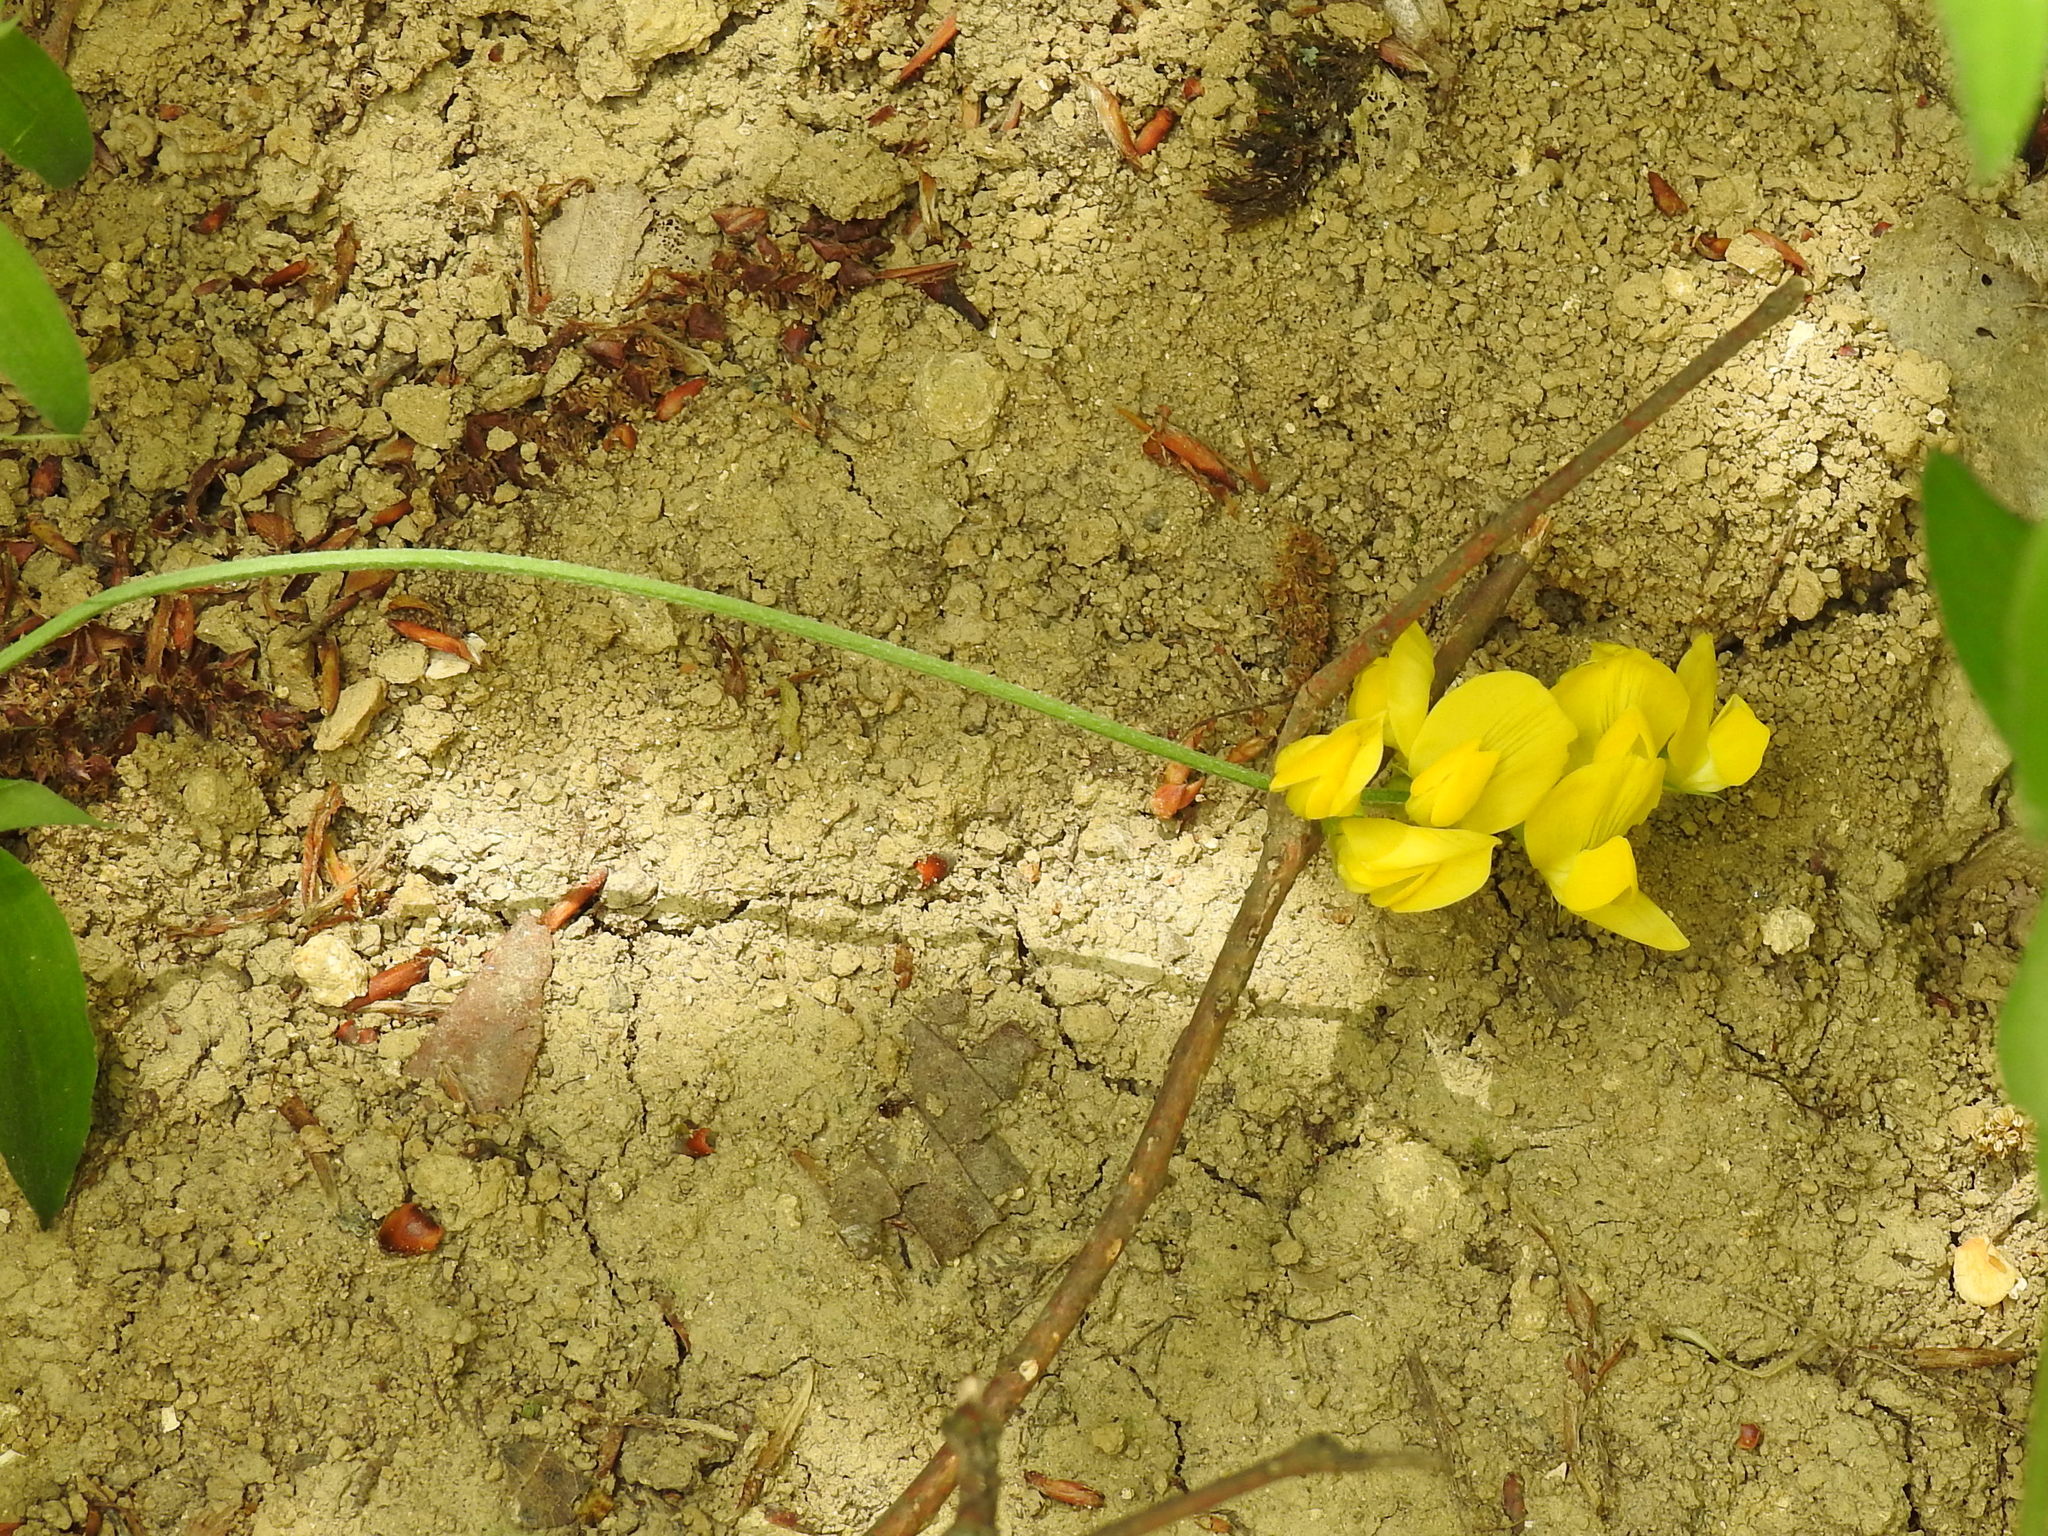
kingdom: Plantae
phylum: Tracheophyta
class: Magnoliopsida
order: Fabales
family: Fabaceae
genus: Lathyrus
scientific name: Lathyrus pratensis
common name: Meadow vetchling
